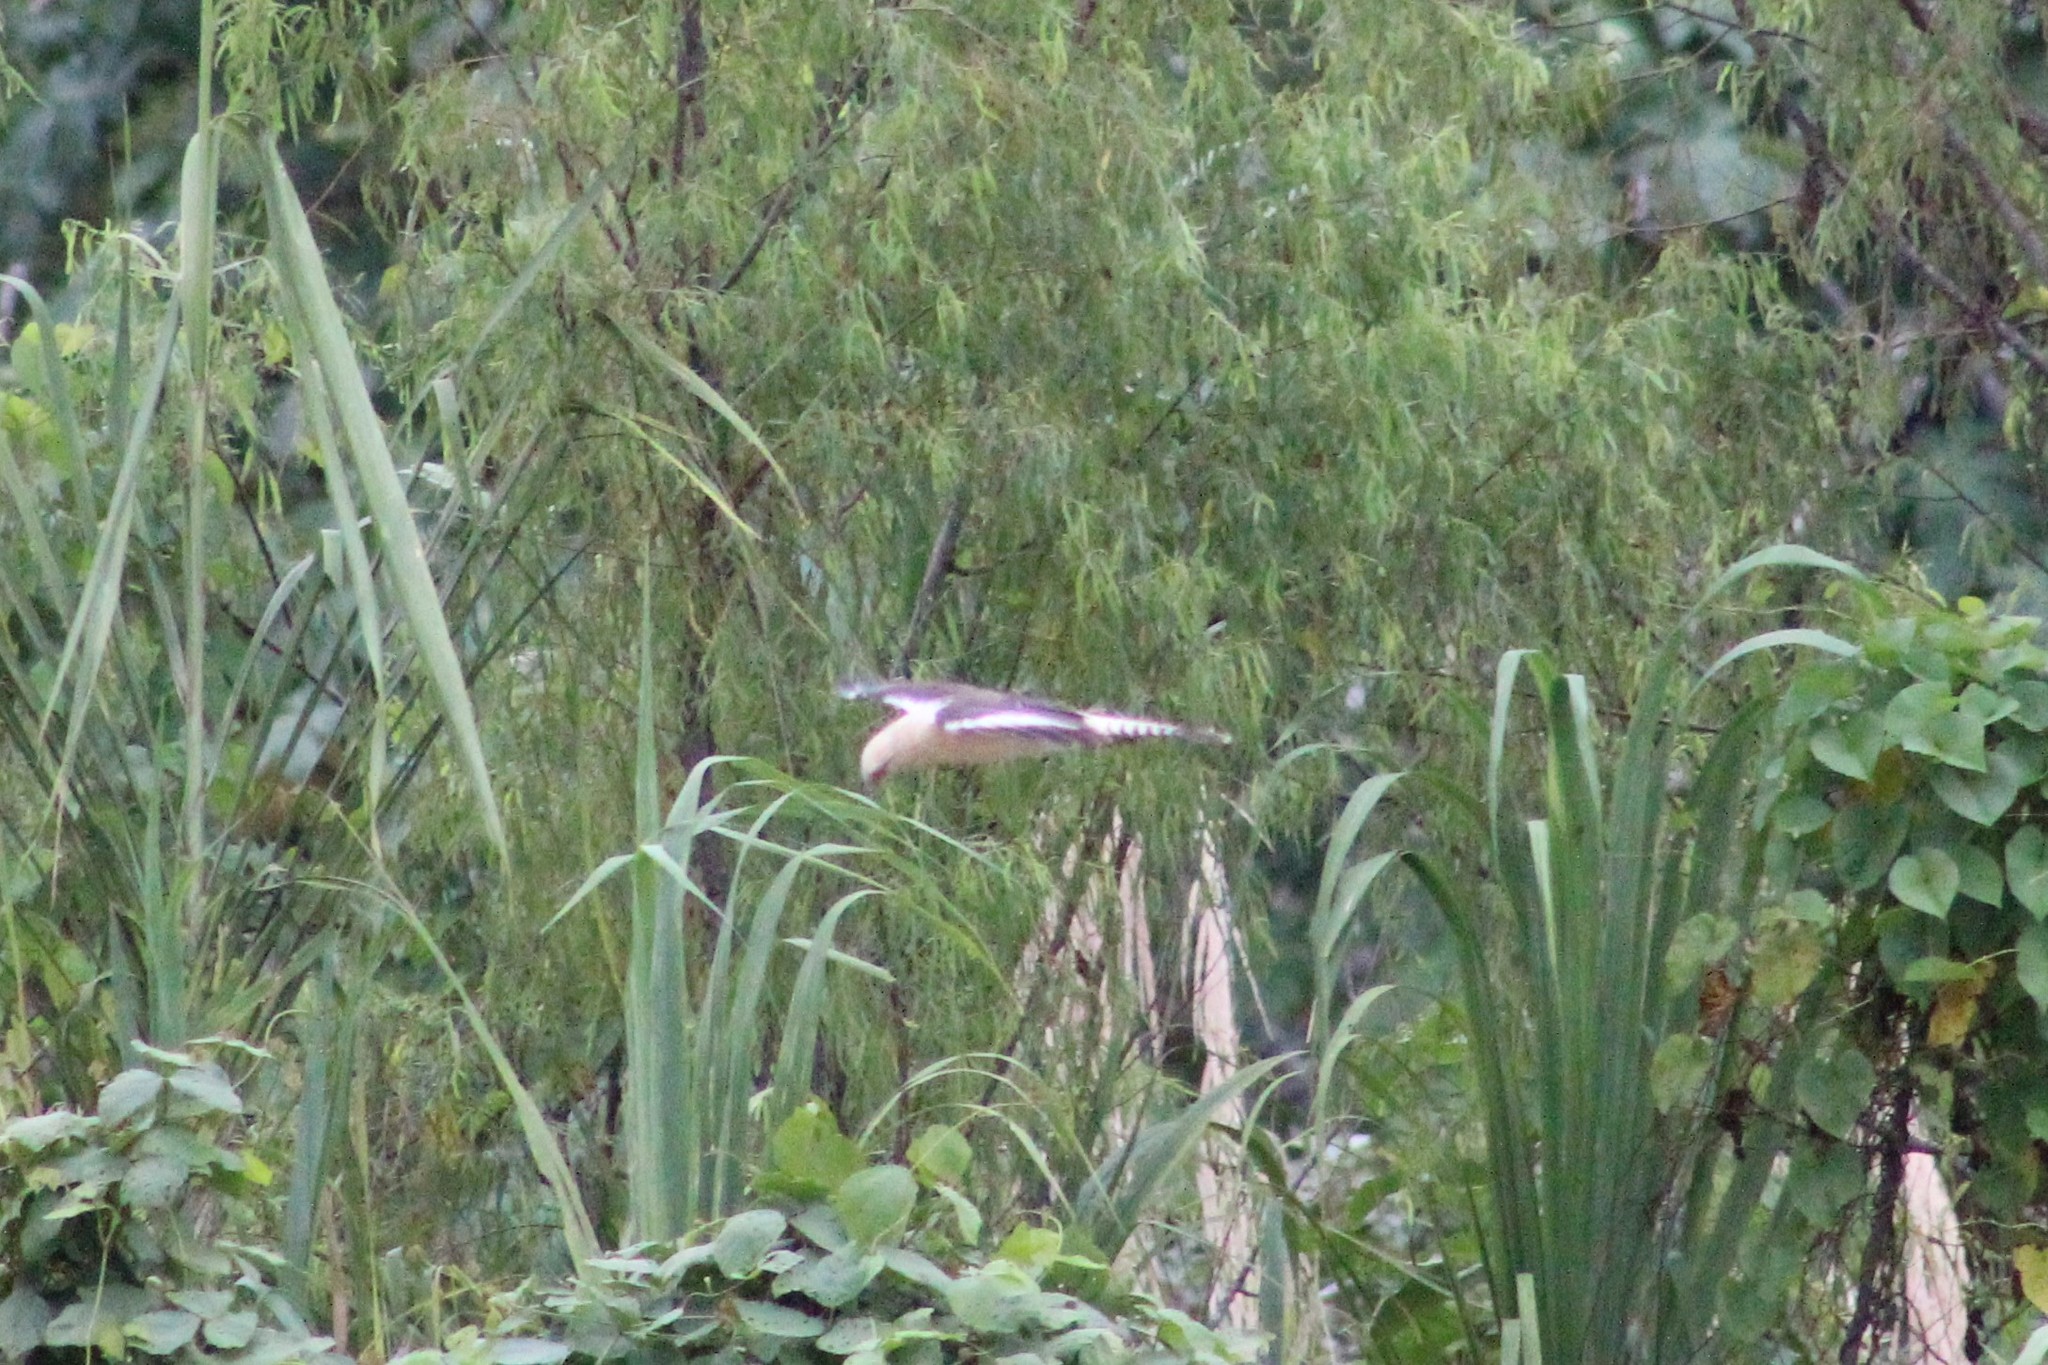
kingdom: Animalia
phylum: Chordata
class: Aves
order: Falconiformes
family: Falconidae
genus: Daptrius
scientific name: Daptrius
